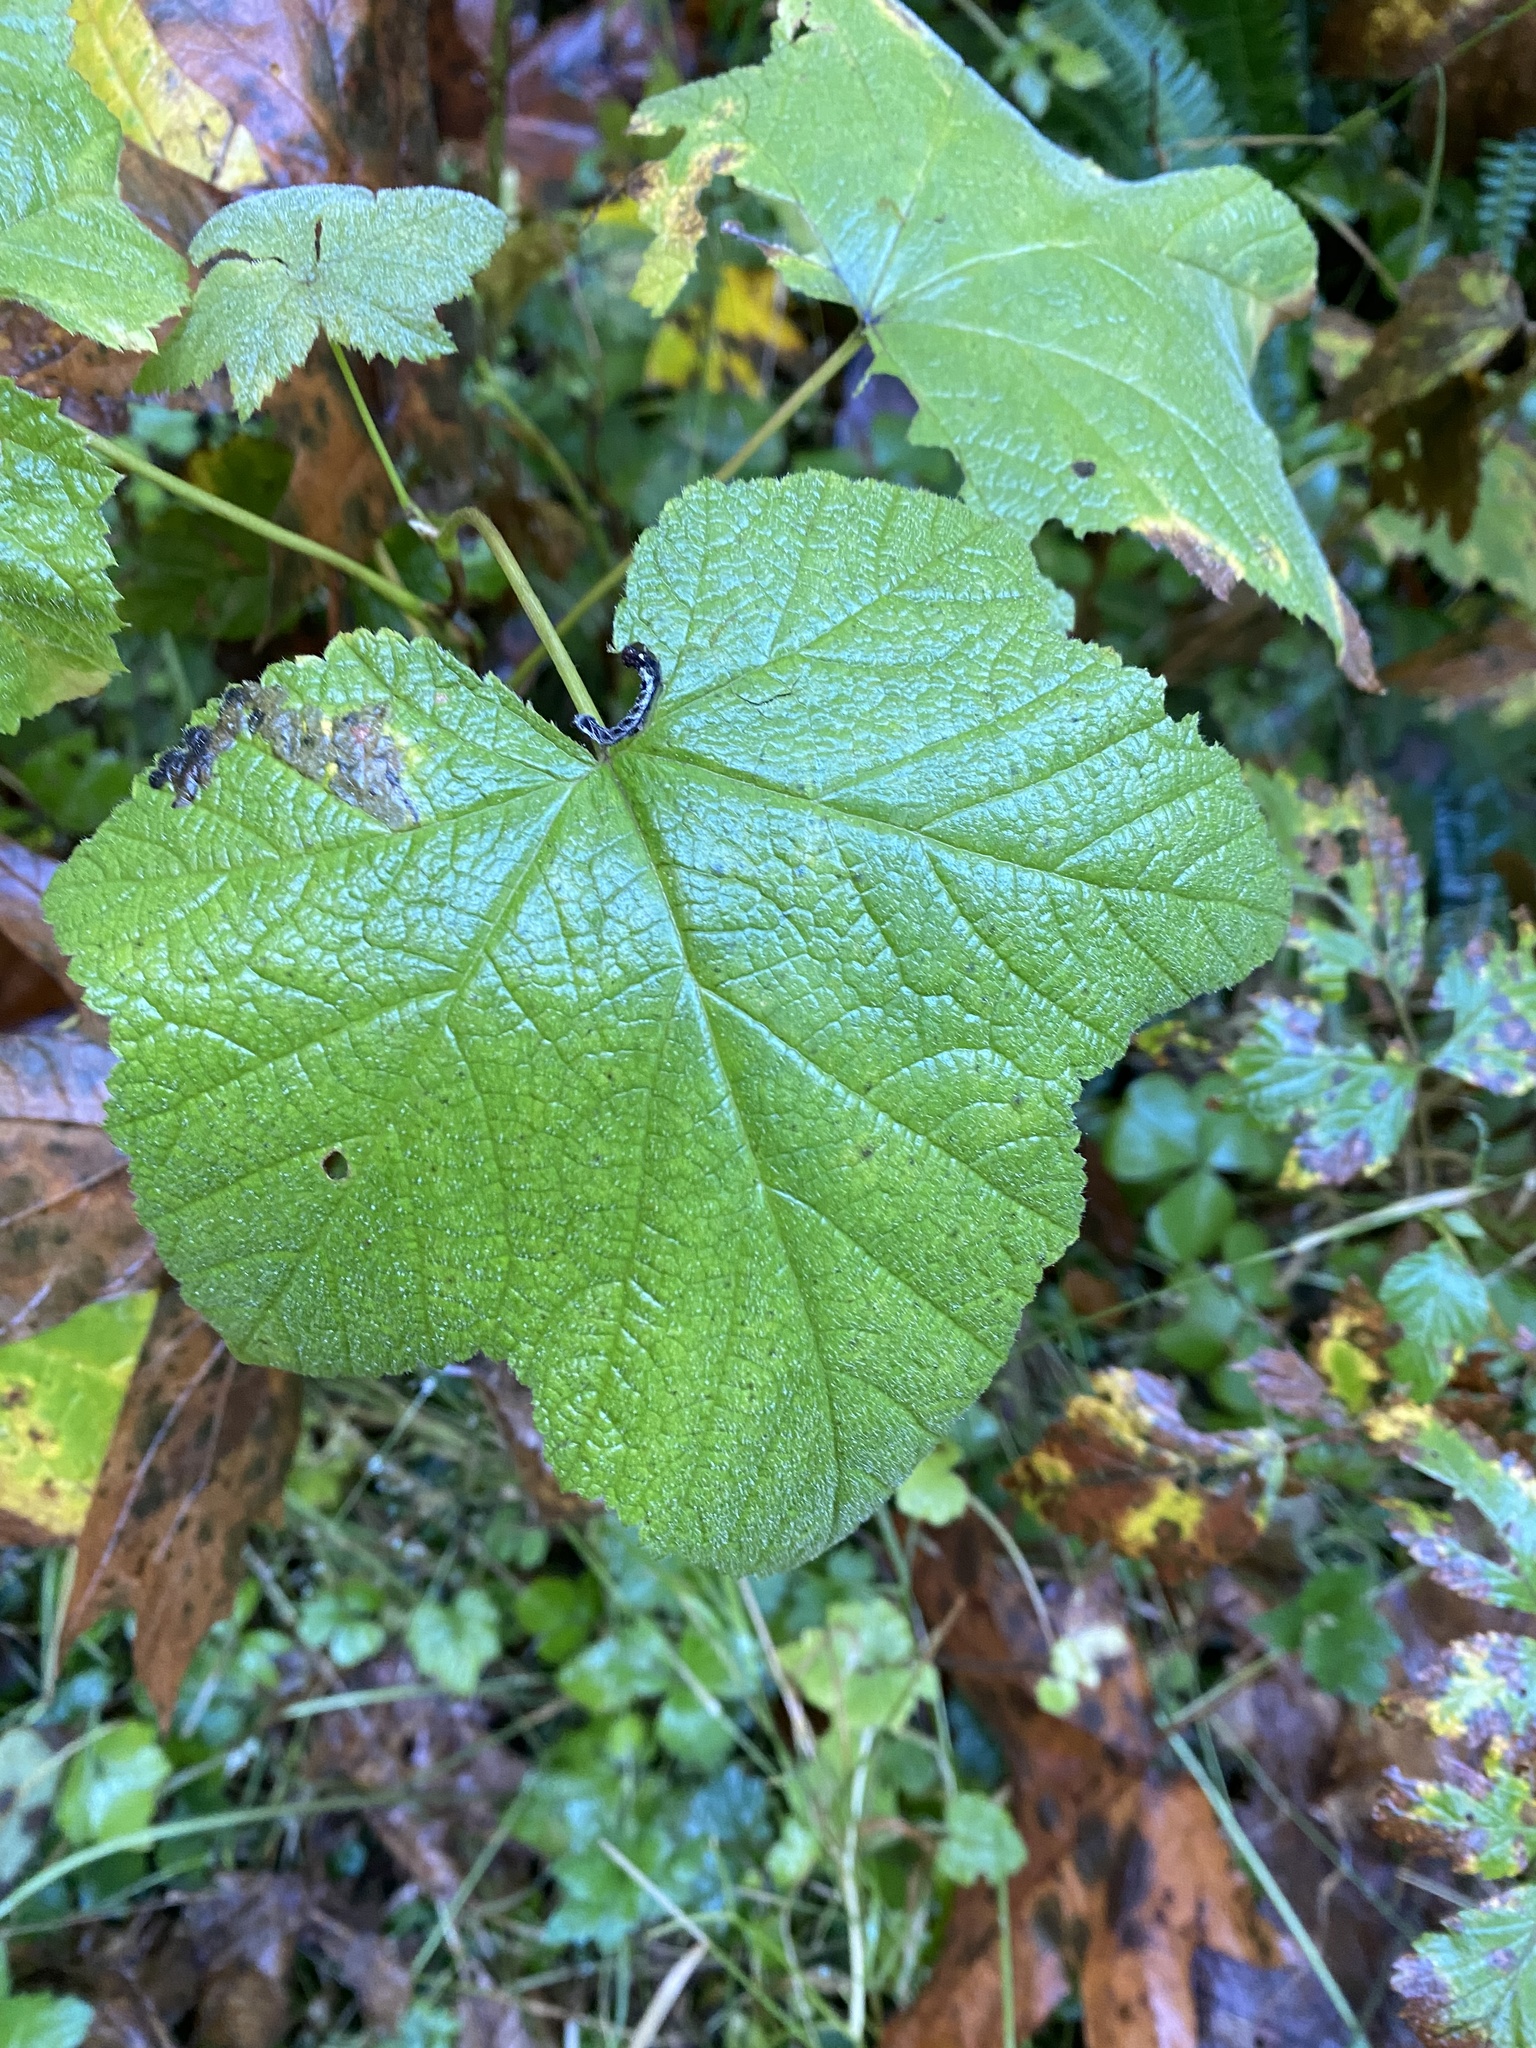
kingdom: Plantae
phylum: Tracheophyta
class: Magnoliopsida
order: Rosales
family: Rosaceae
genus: Rubus
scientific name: Rubus parviflorus
